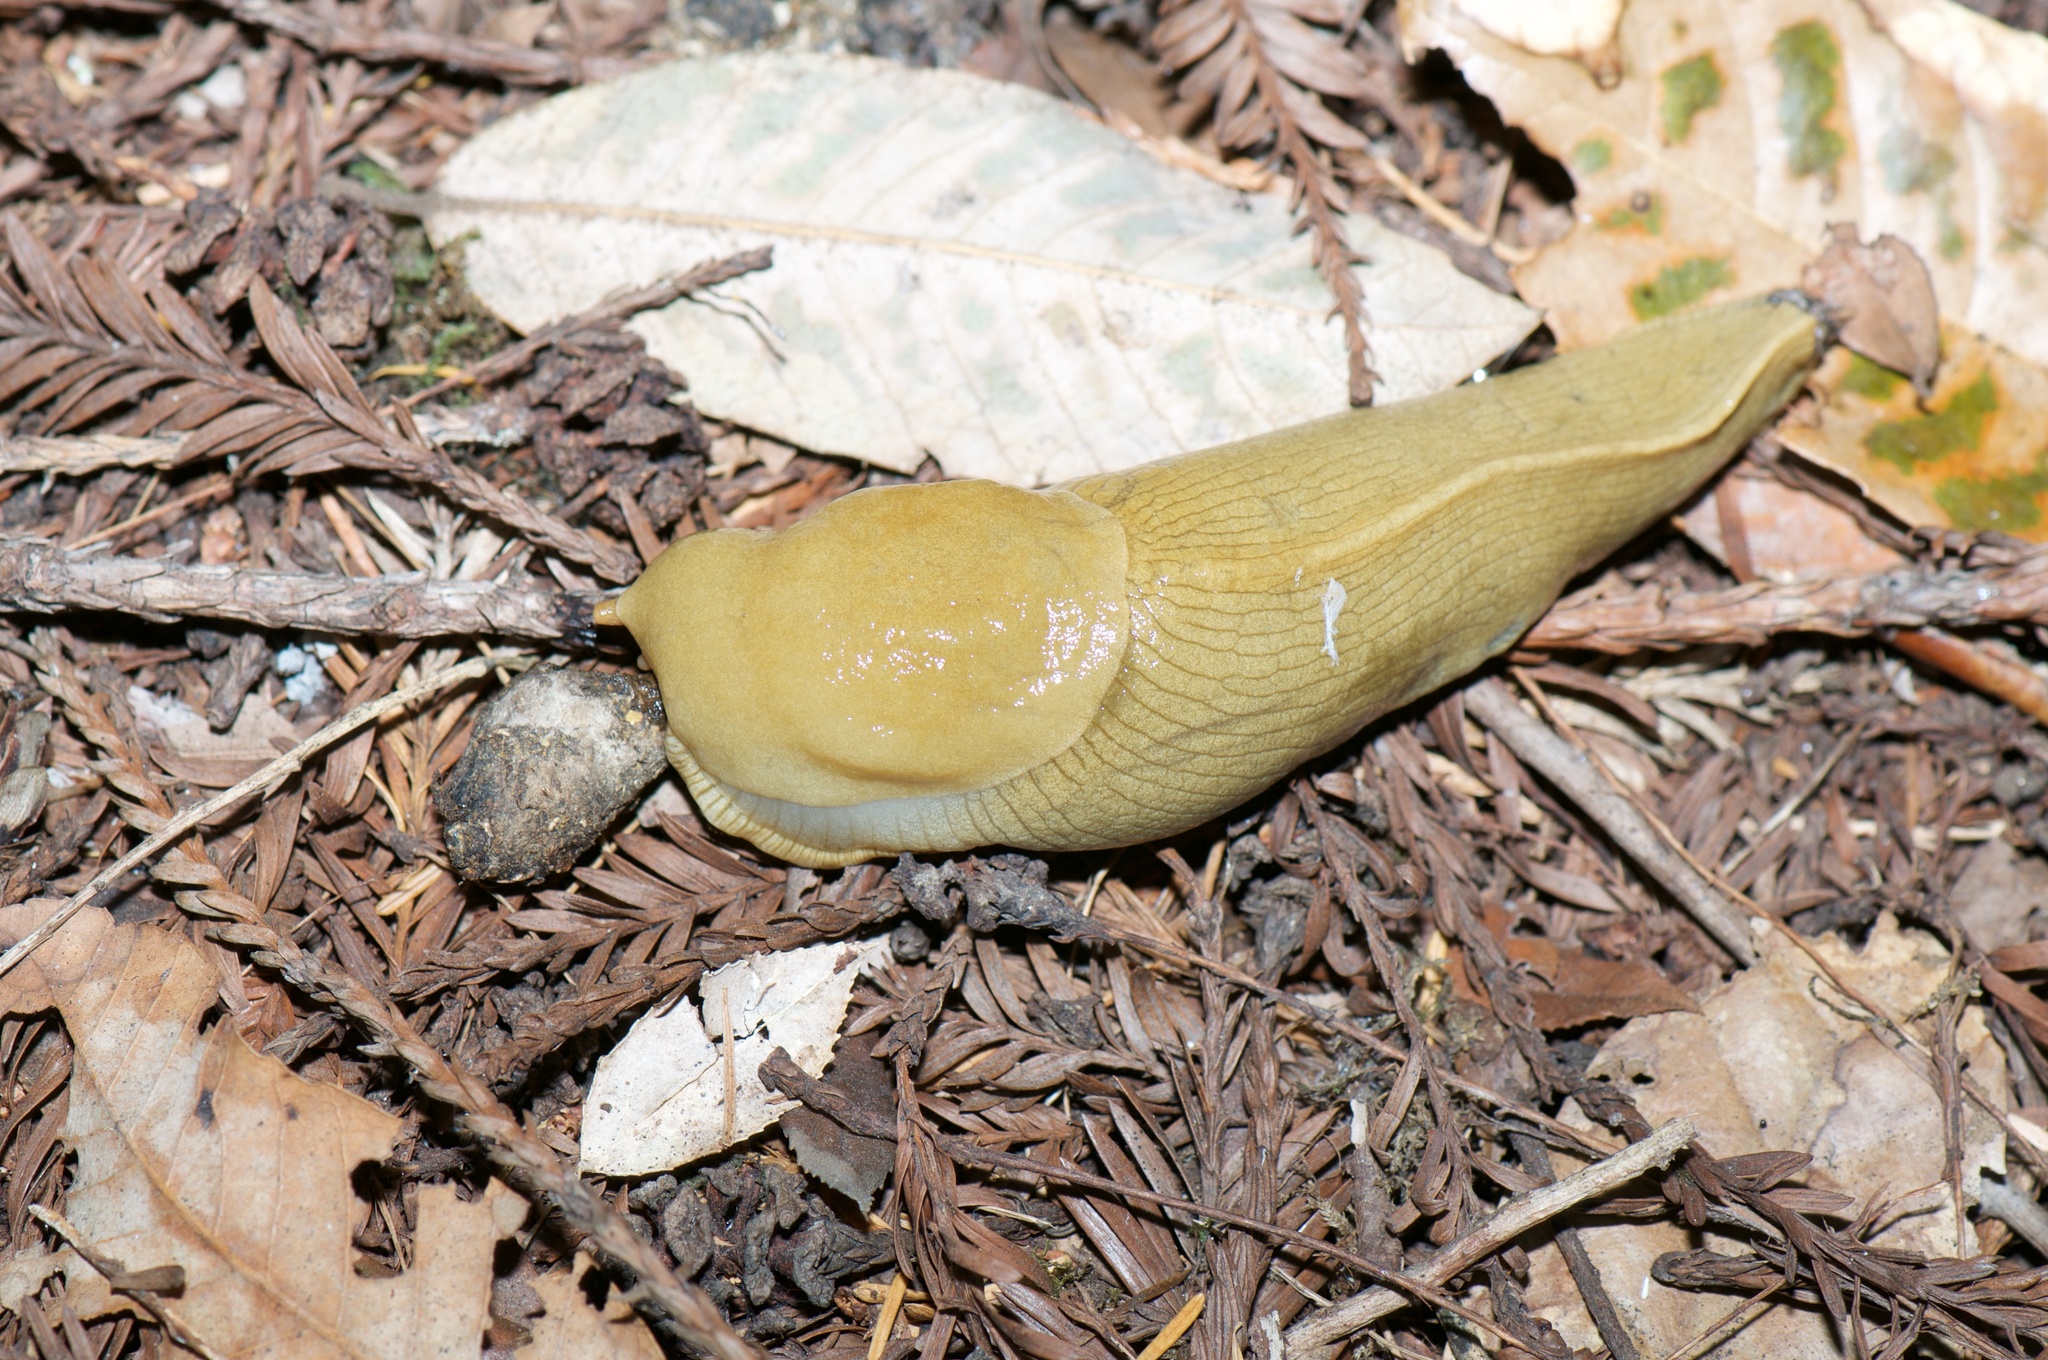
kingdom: Animalia
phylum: Mollusca
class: Gastropoda
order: Stylommatophora
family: Ariolimacidae
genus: Ariolimax
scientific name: Ariolimax columbianus
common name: Pacific banana slug
